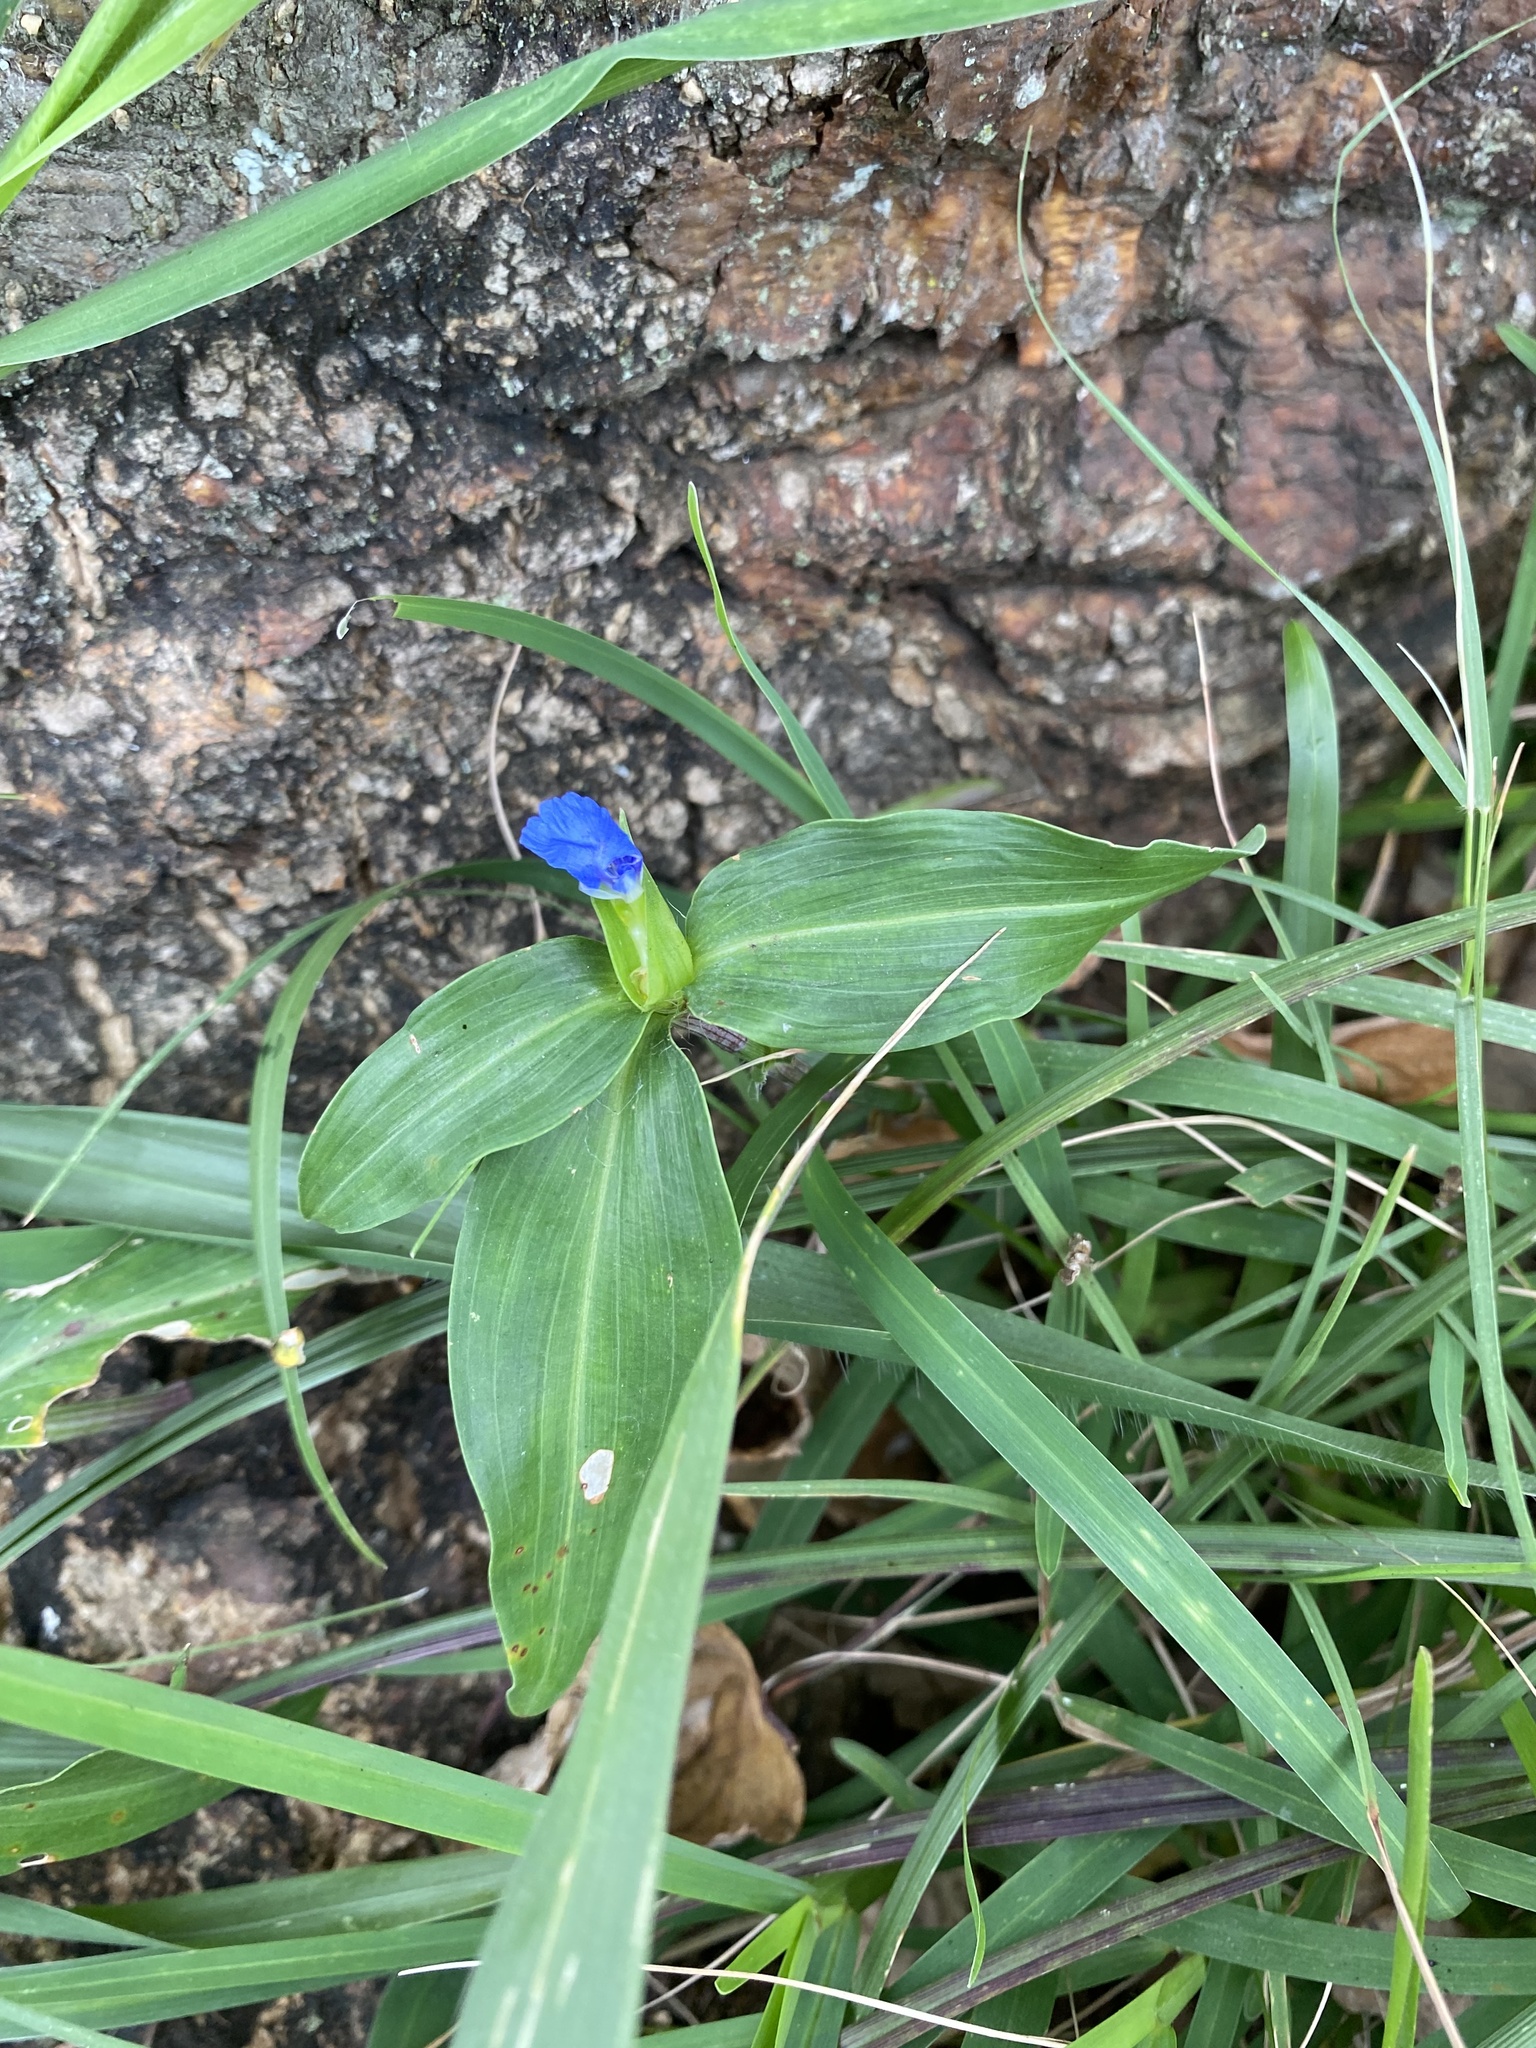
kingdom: Plantae
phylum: Tracheophyta
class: Liliopsida
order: Commelinales
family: Commelinaceae
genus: Commelina
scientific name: Commelina erecta
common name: Blousel blommetjie
